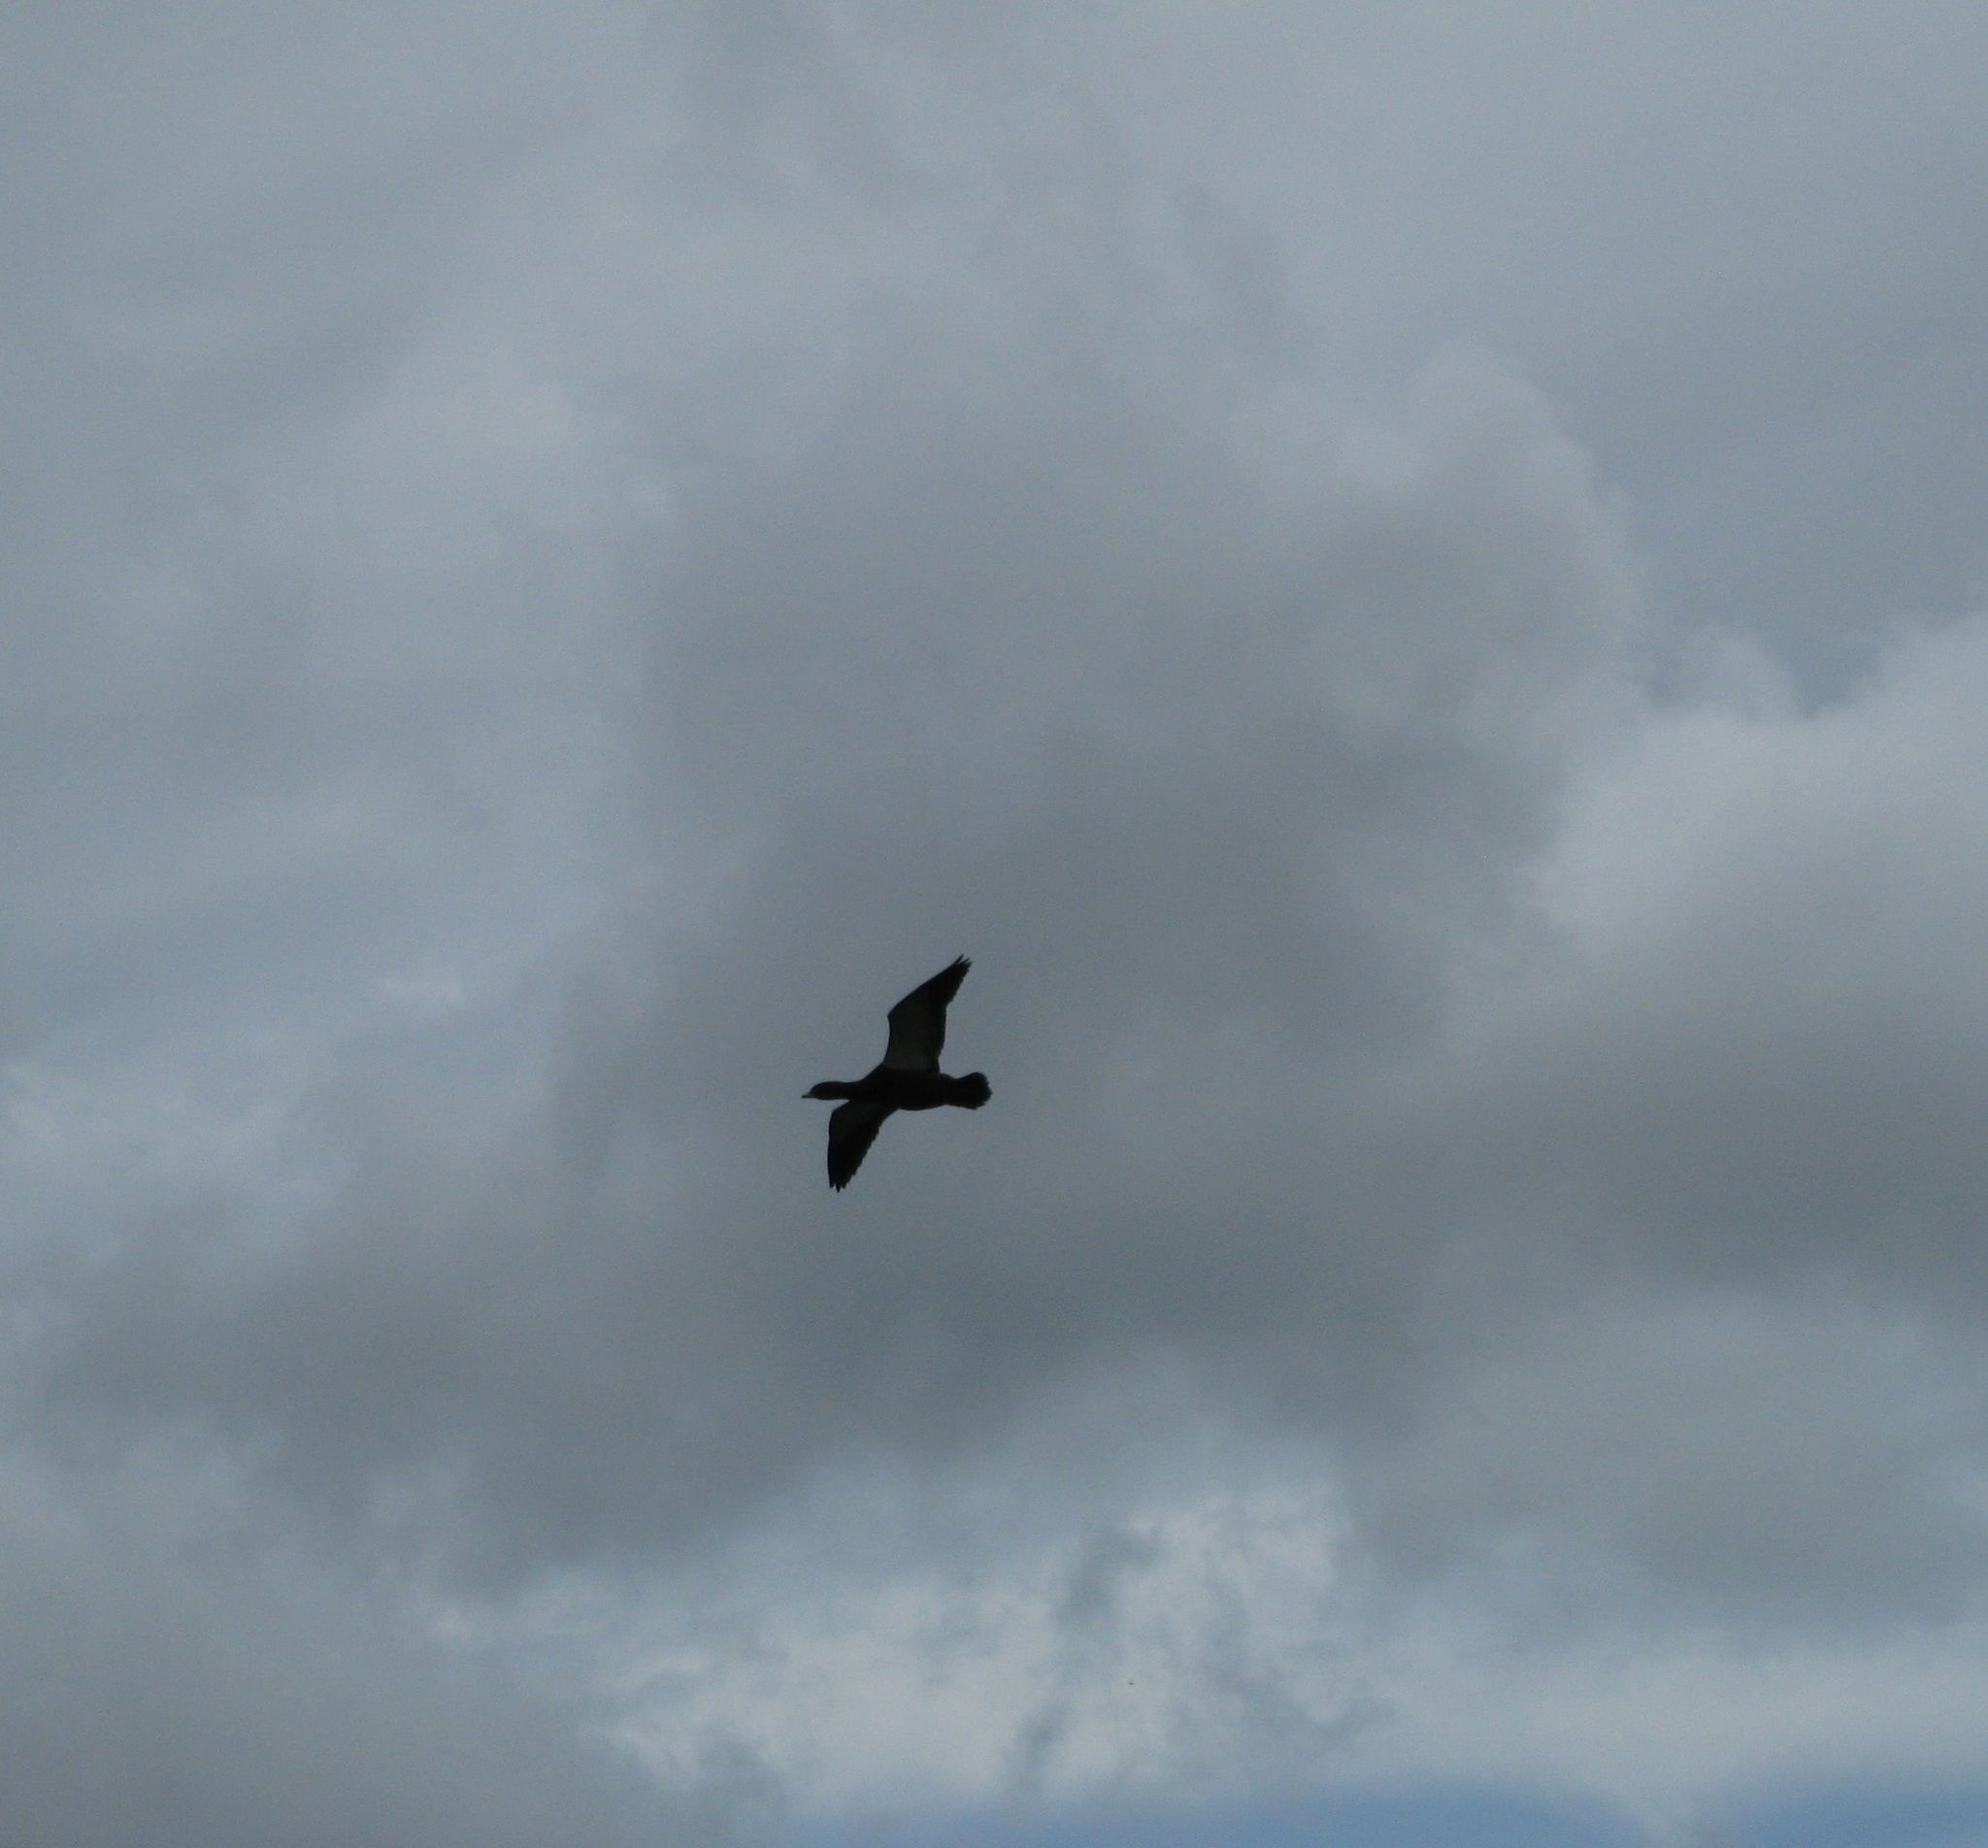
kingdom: Animalia
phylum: Chordata
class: Aves
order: Anseriformes
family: Anatidae
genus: Tadorna
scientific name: Tadorna variegata
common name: Paradise shelduck
